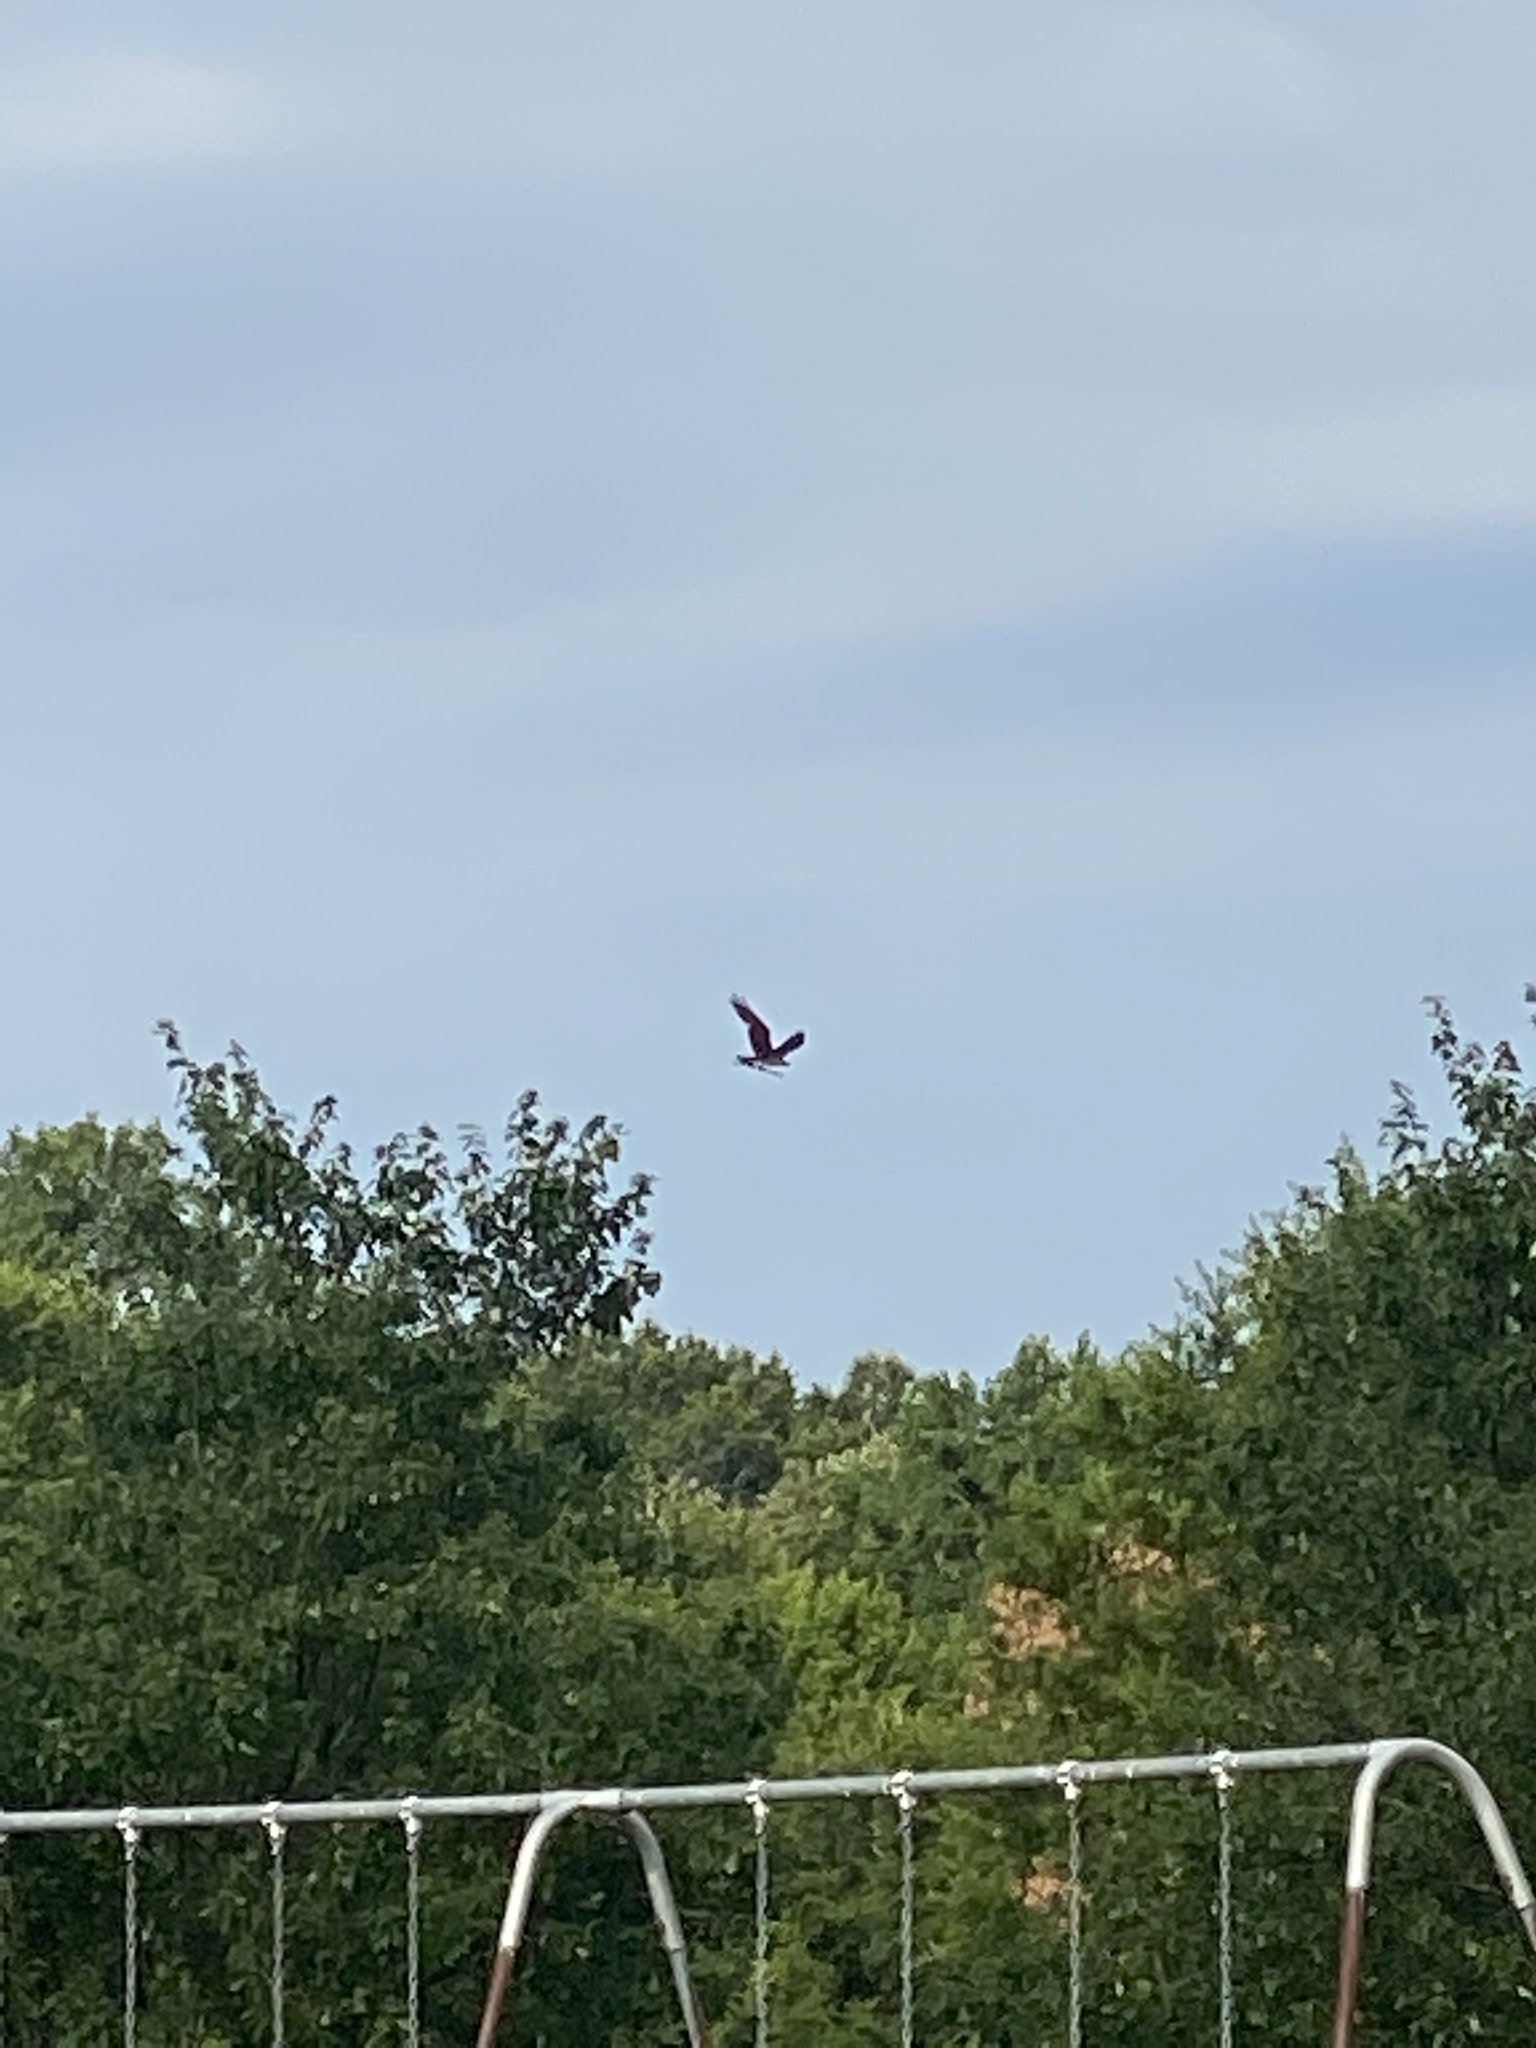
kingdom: Animalia
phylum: Chordata
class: Aves
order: Accipitriformes
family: Pandionidae
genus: Pandion
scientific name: Pandion haliaetus
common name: Osprey
